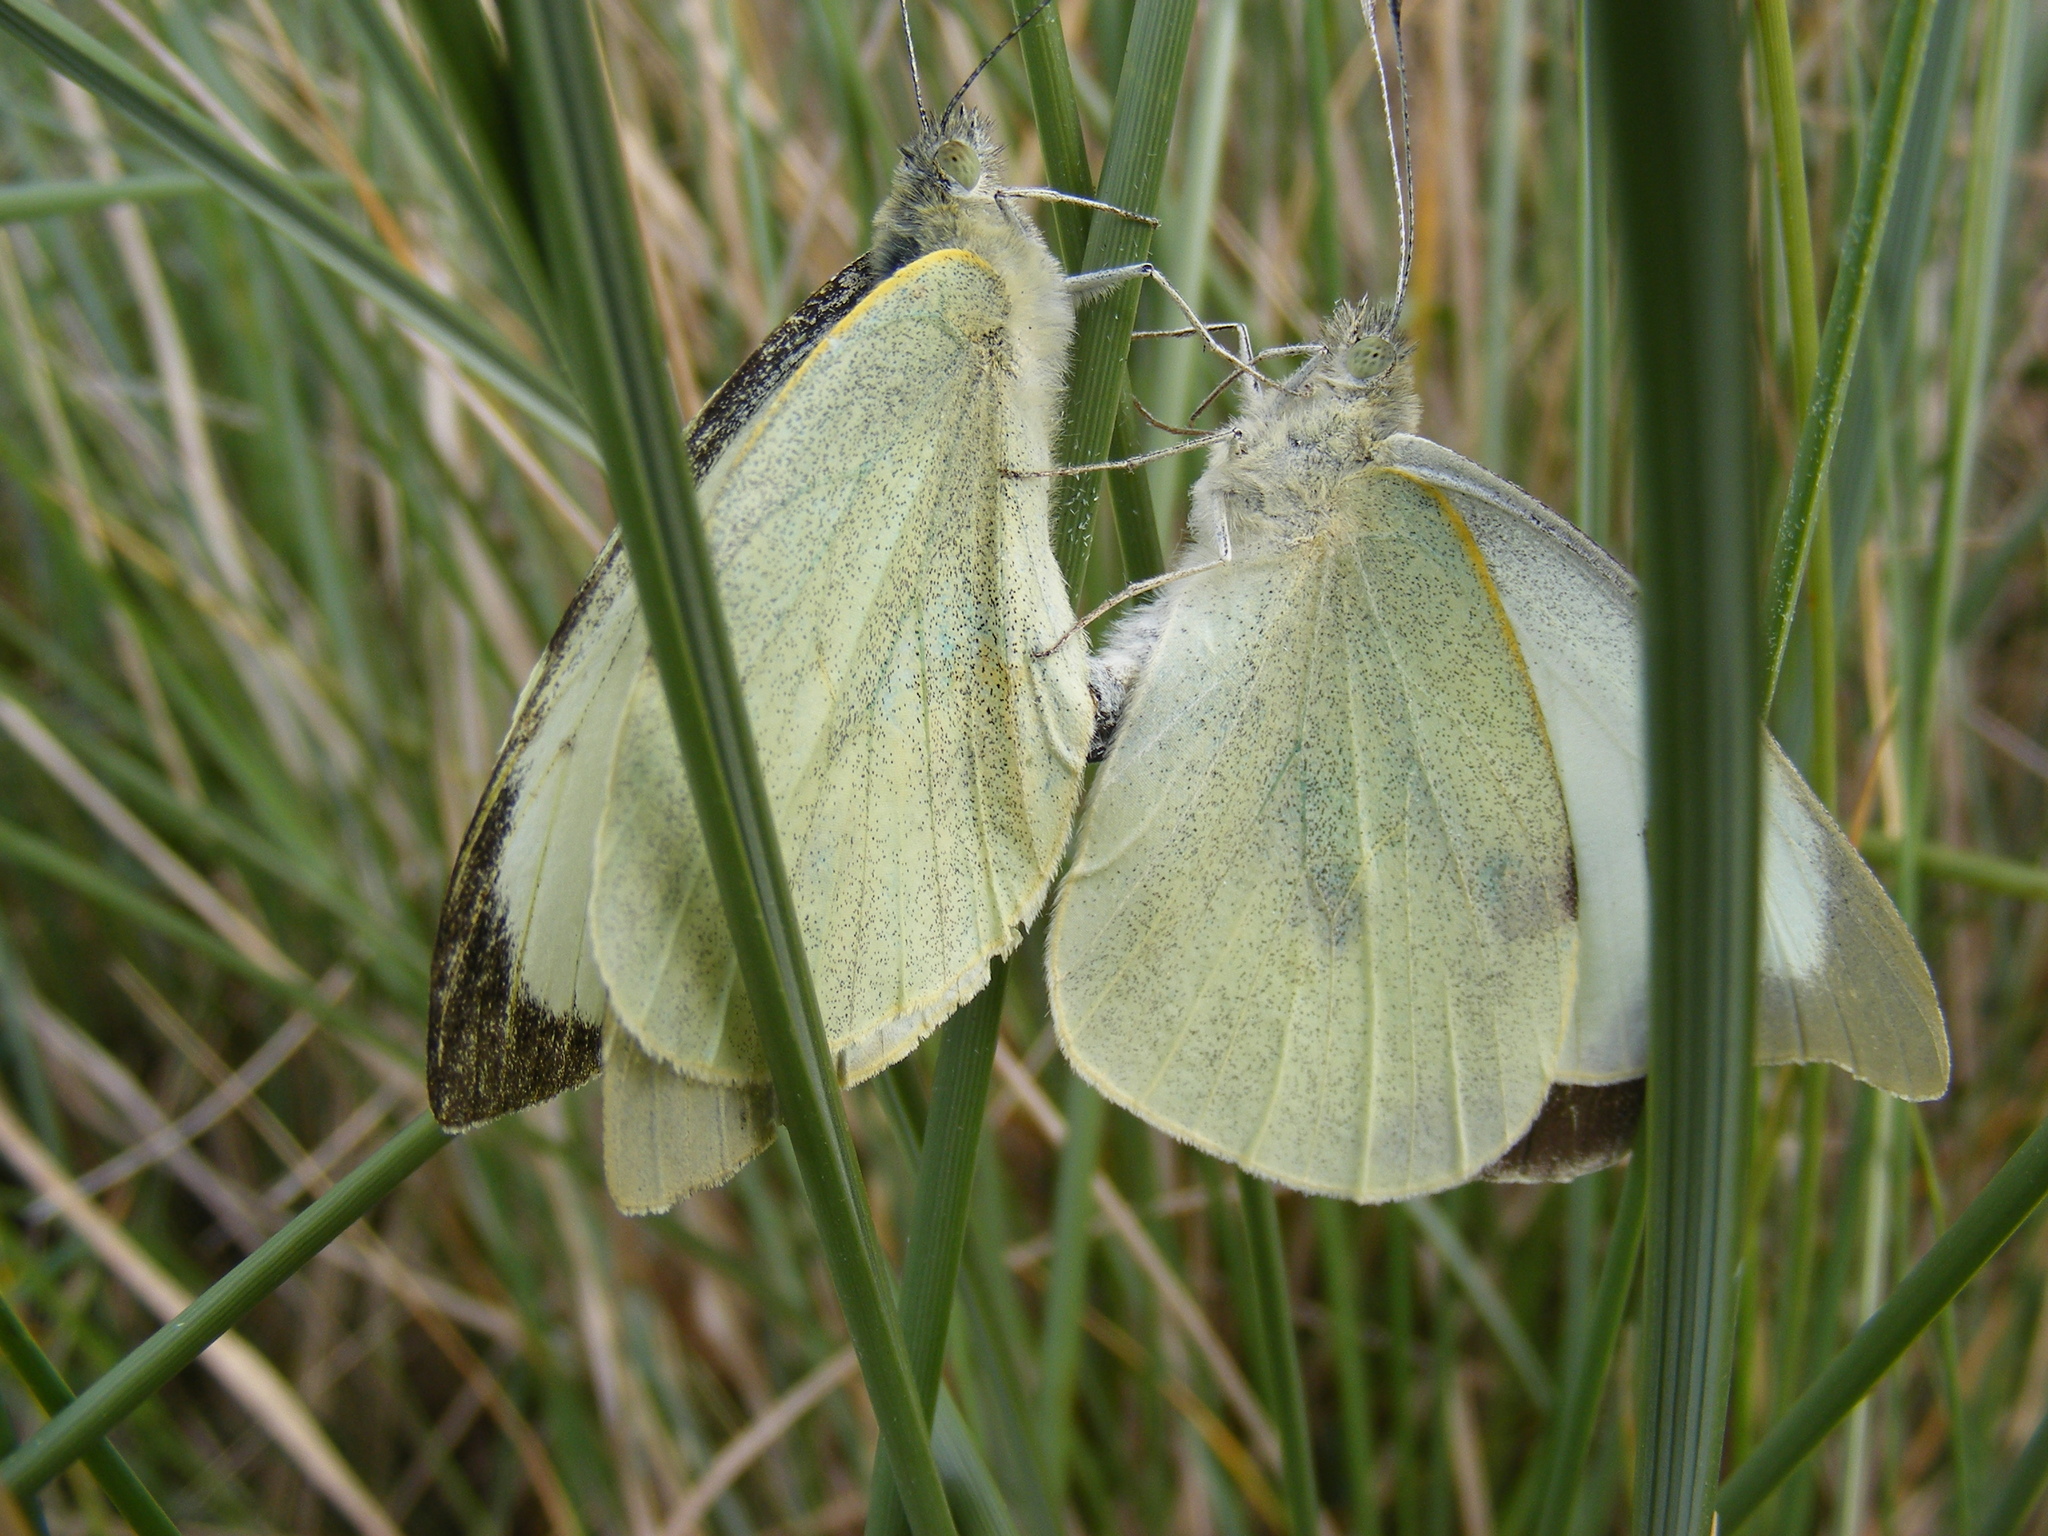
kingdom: Animalia
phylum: Arthropoda
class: Insecta
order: Lepidoptera
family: Pieridae
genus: Pieris
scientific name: Pieris brassicae
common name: Large white
